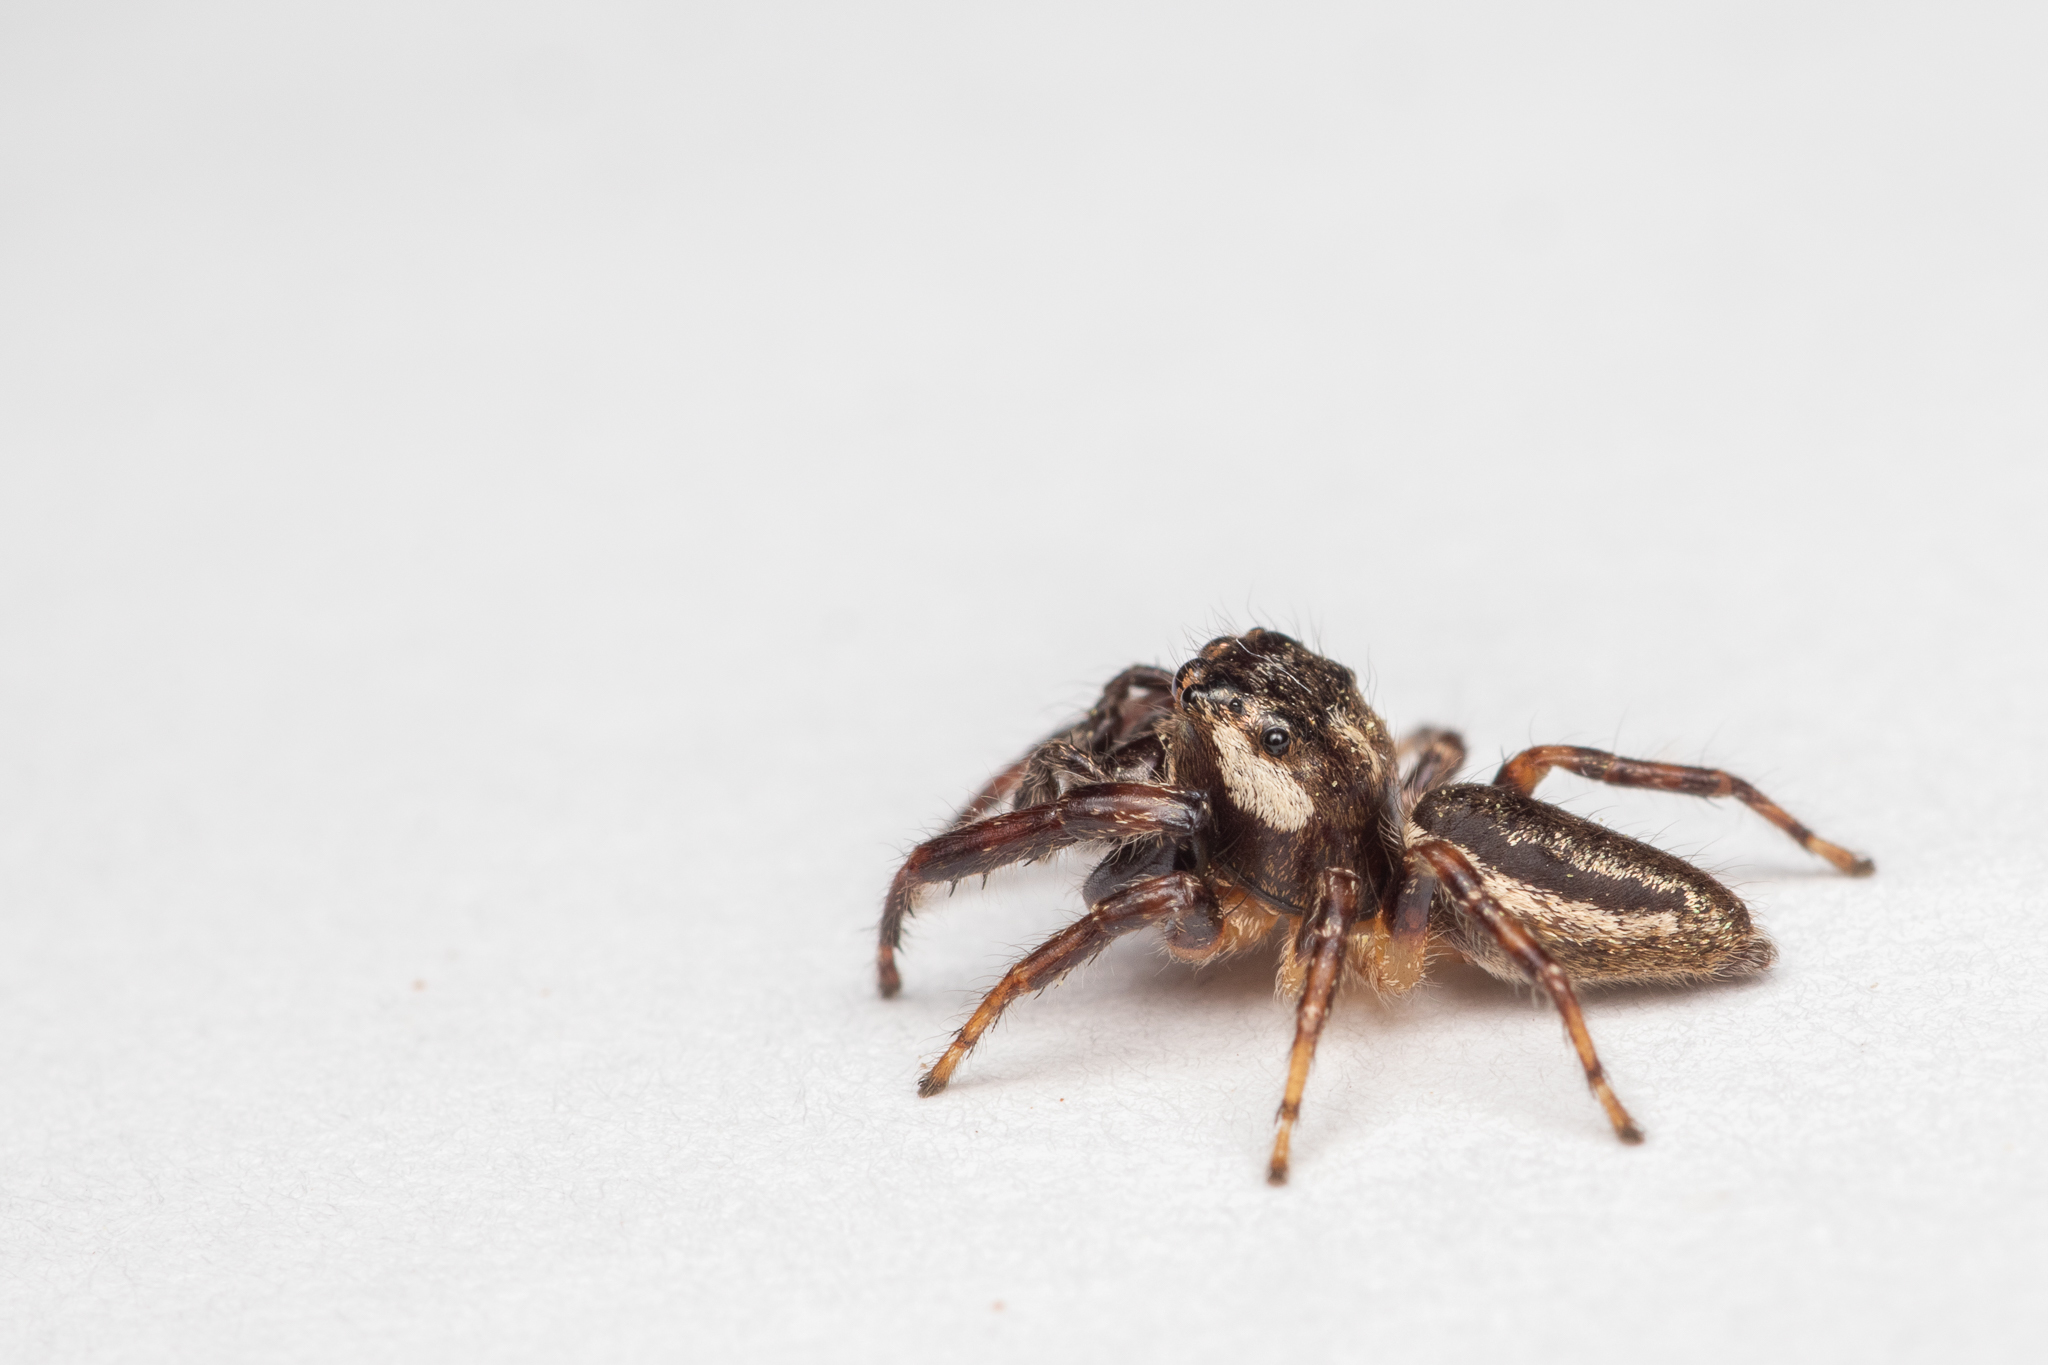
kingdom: Animalia
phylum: Arthropoda
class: Arachnida
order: Araneae
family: Salticidae
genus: Eris
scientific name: Eris militaris
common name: Bronze jumper
